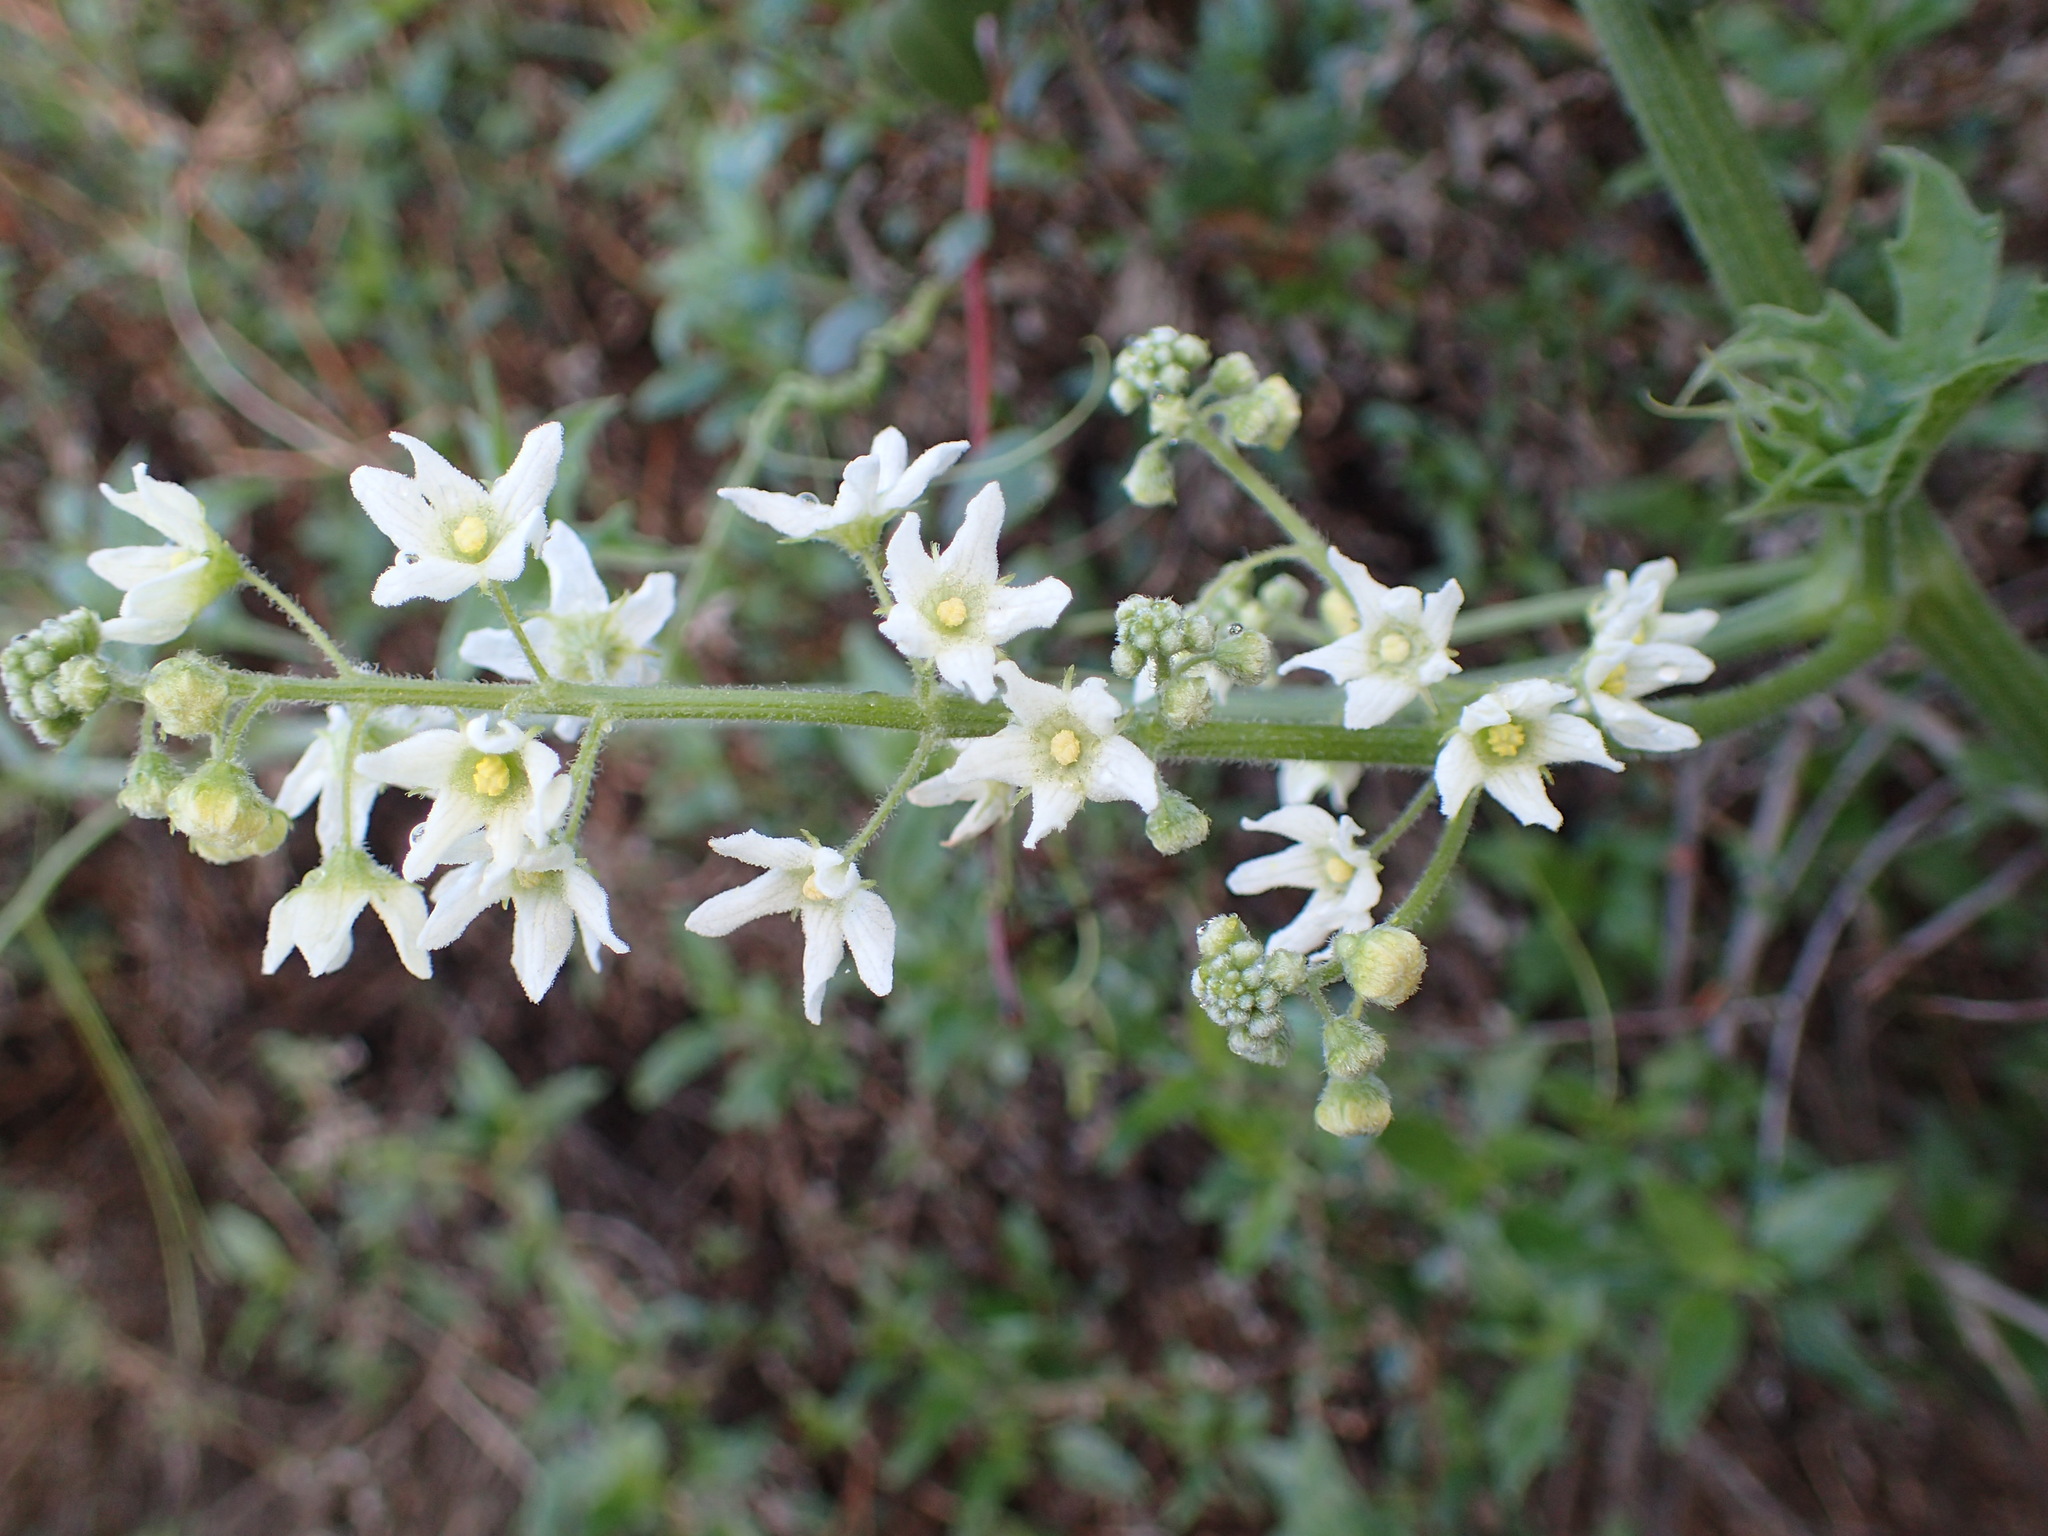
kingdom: Plantae
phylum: Tracheophyta
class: Magnoliopsida
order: Cucurbitales
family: Cucurbitaceae
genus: Marah
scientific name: Marah macrocarpa
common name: Cucamonga manroot
